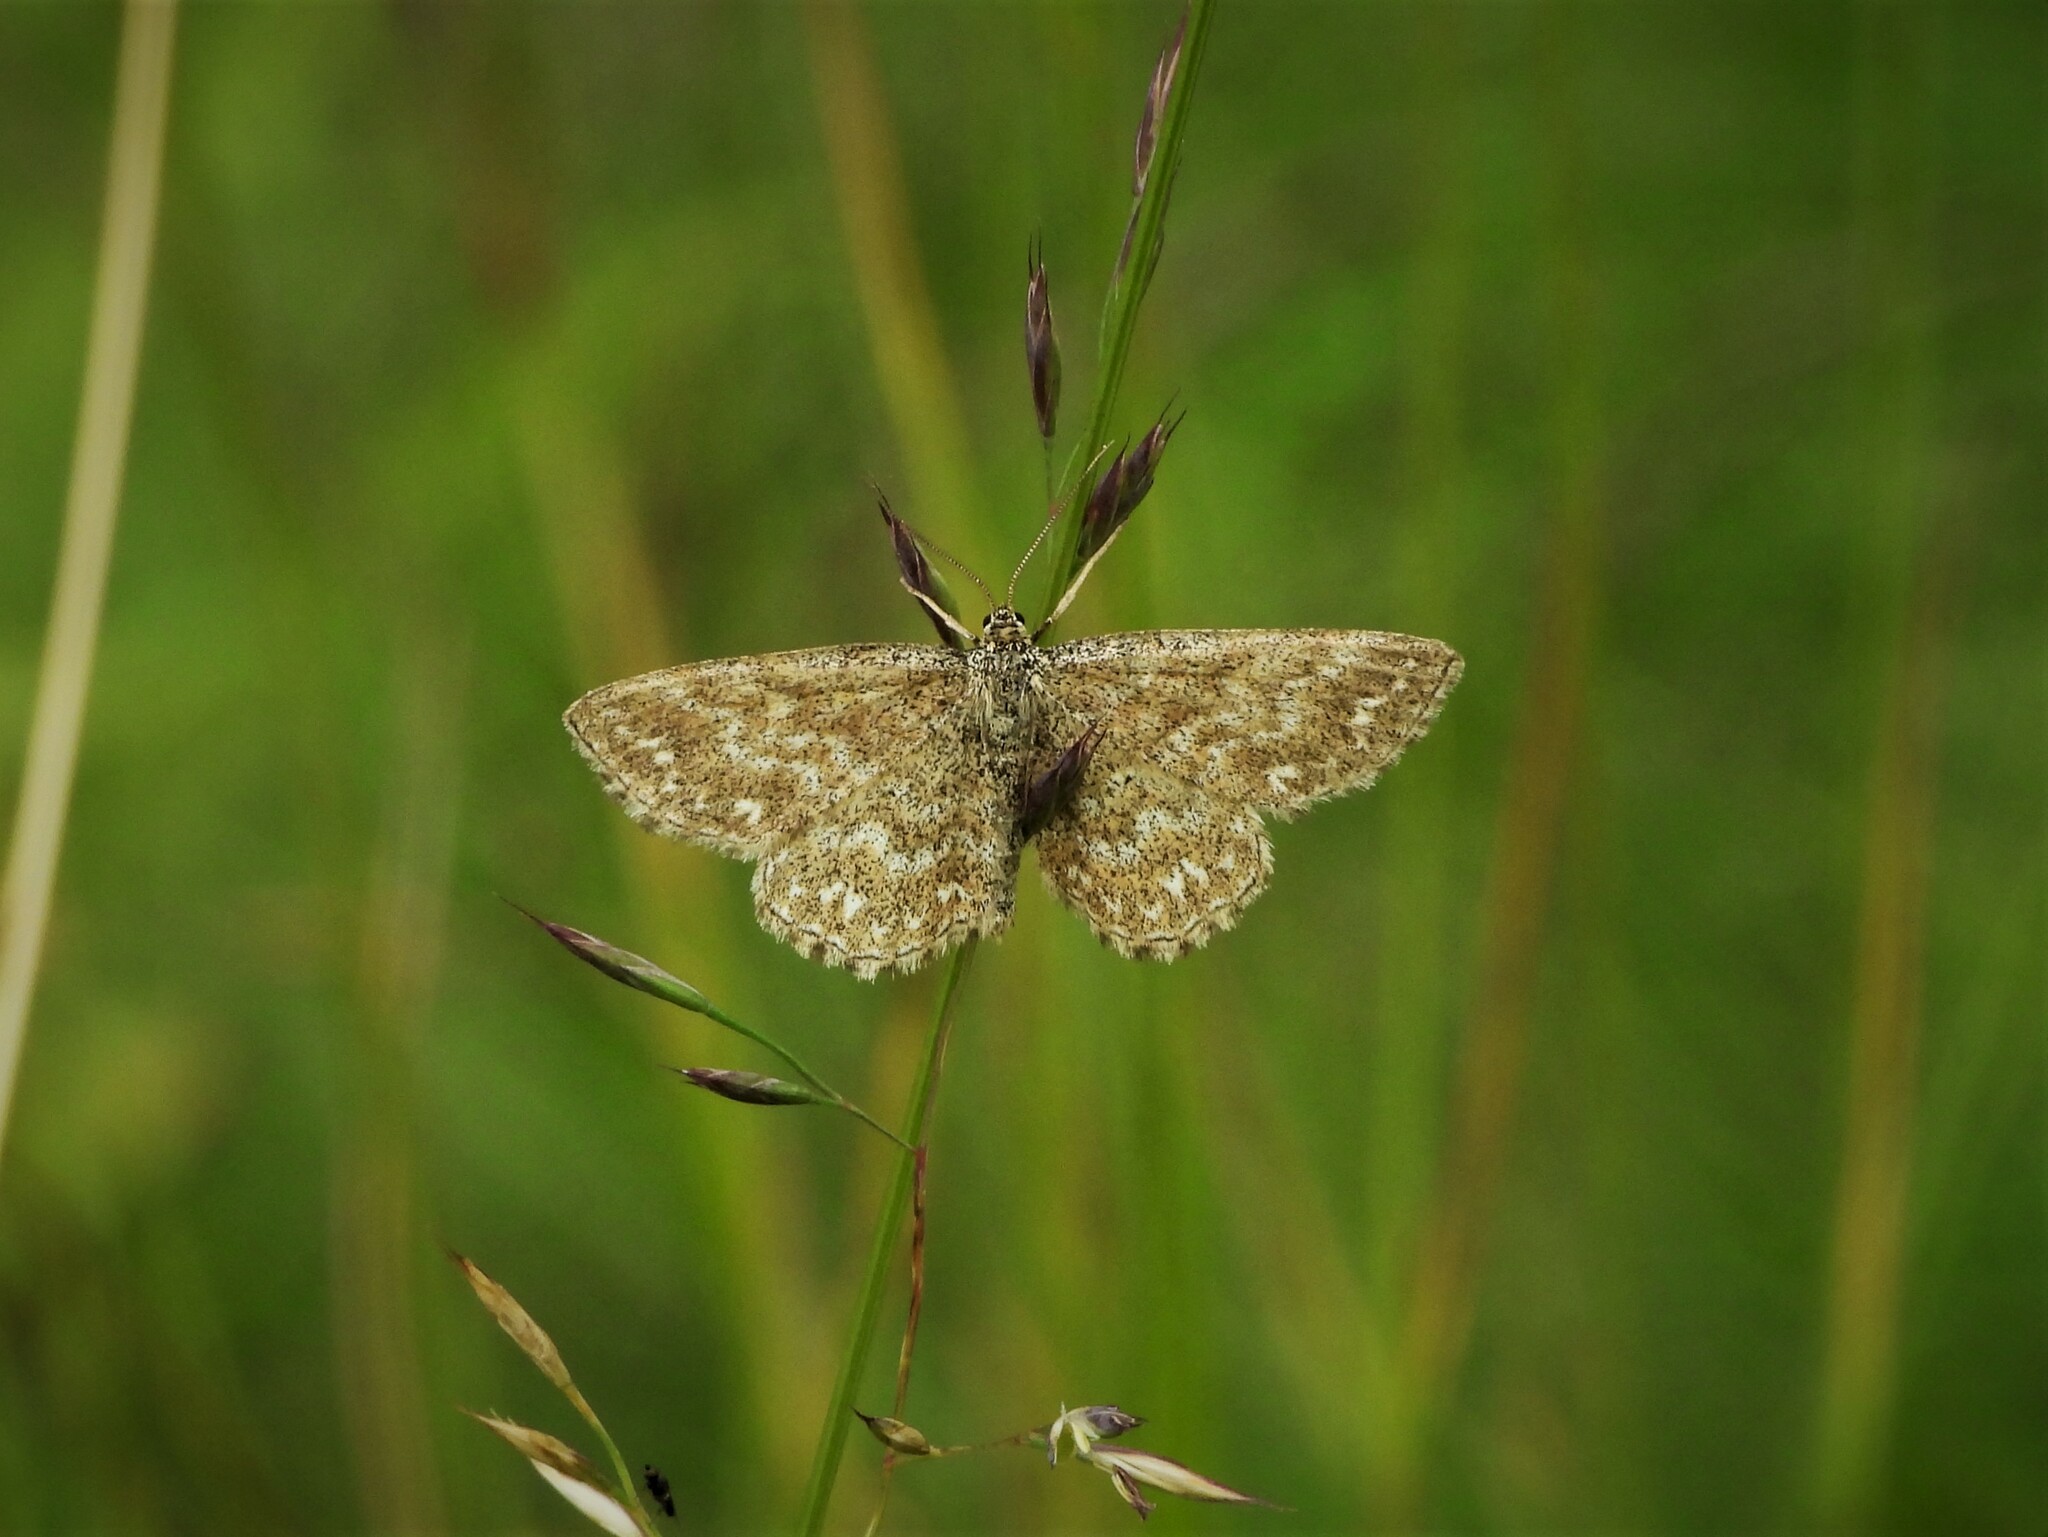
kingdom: Animalia
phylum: Arthropoda
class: Insecta
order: Lepidoptera
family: Geometridae
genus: Scopula
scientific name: Scopula immorata
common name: Lewes wave
